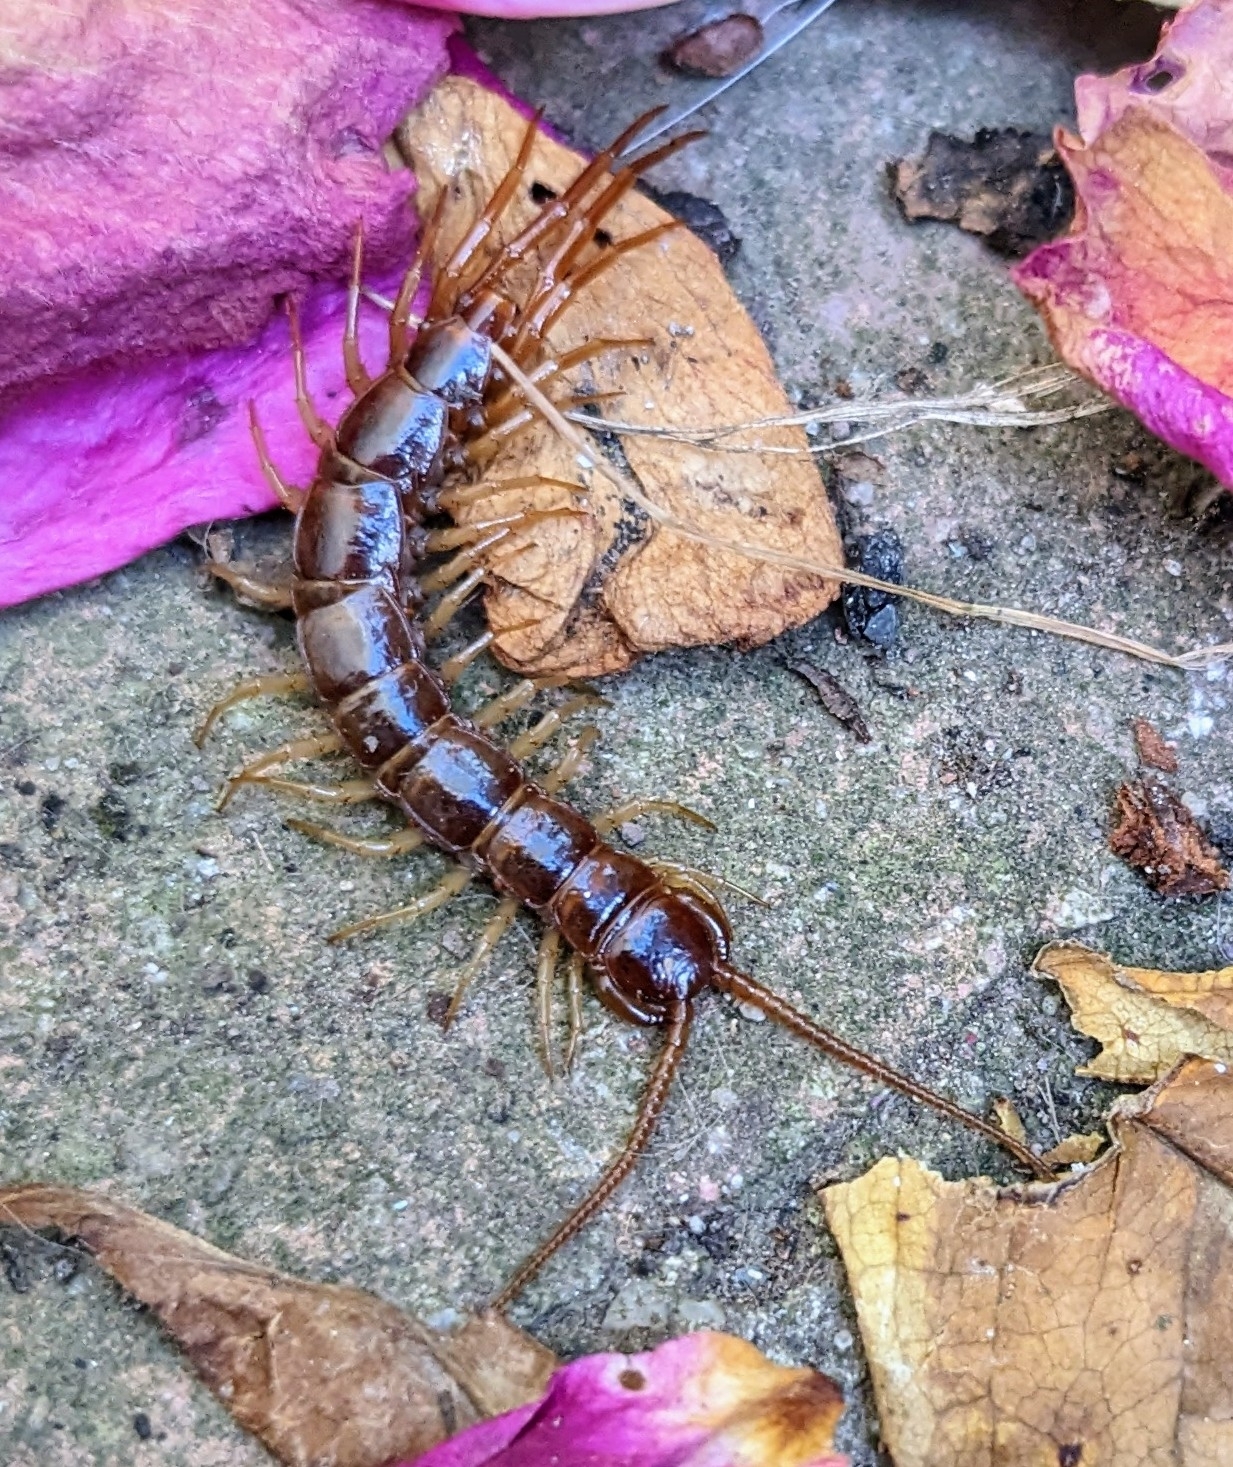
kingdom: Animalia
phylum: Arthropoda
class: Chilopoda
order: Lithobiomorpha
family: Lithobiidae
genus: Lithobius
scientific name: Lithobius forficatus
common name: Centipede
